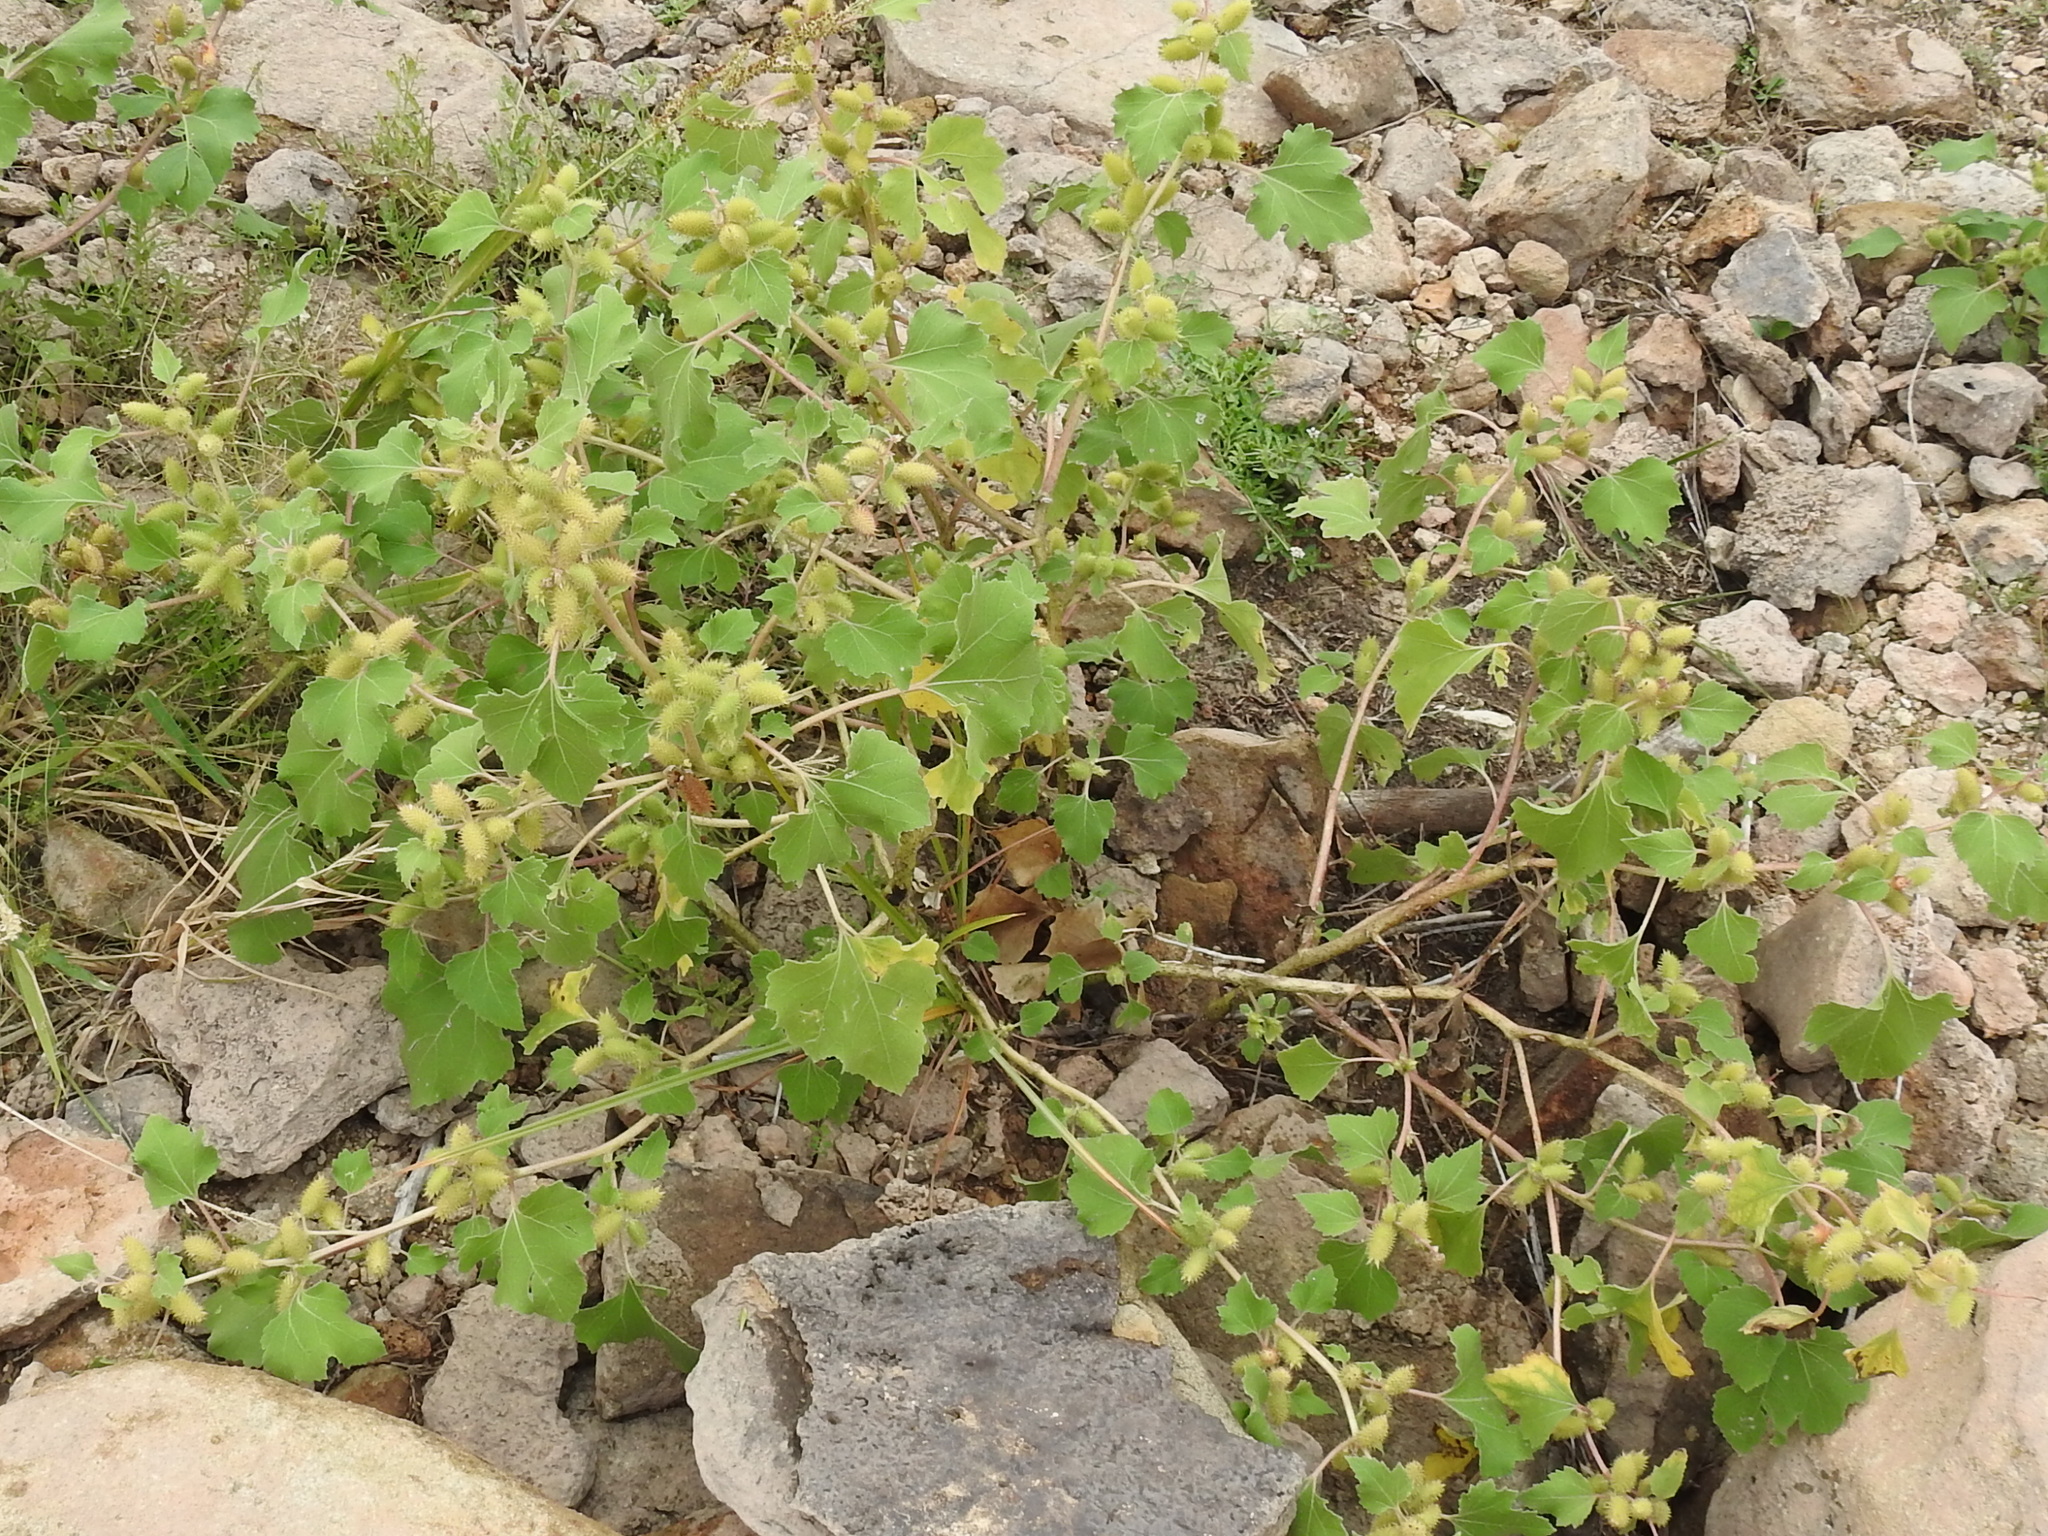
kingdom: Plantae
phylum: Tracheophyta
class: Magnoliopsida
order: Asterales
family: Asteraceae
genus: Xanthium
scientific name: Xanthium strumarium
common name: Rough cocklebur
